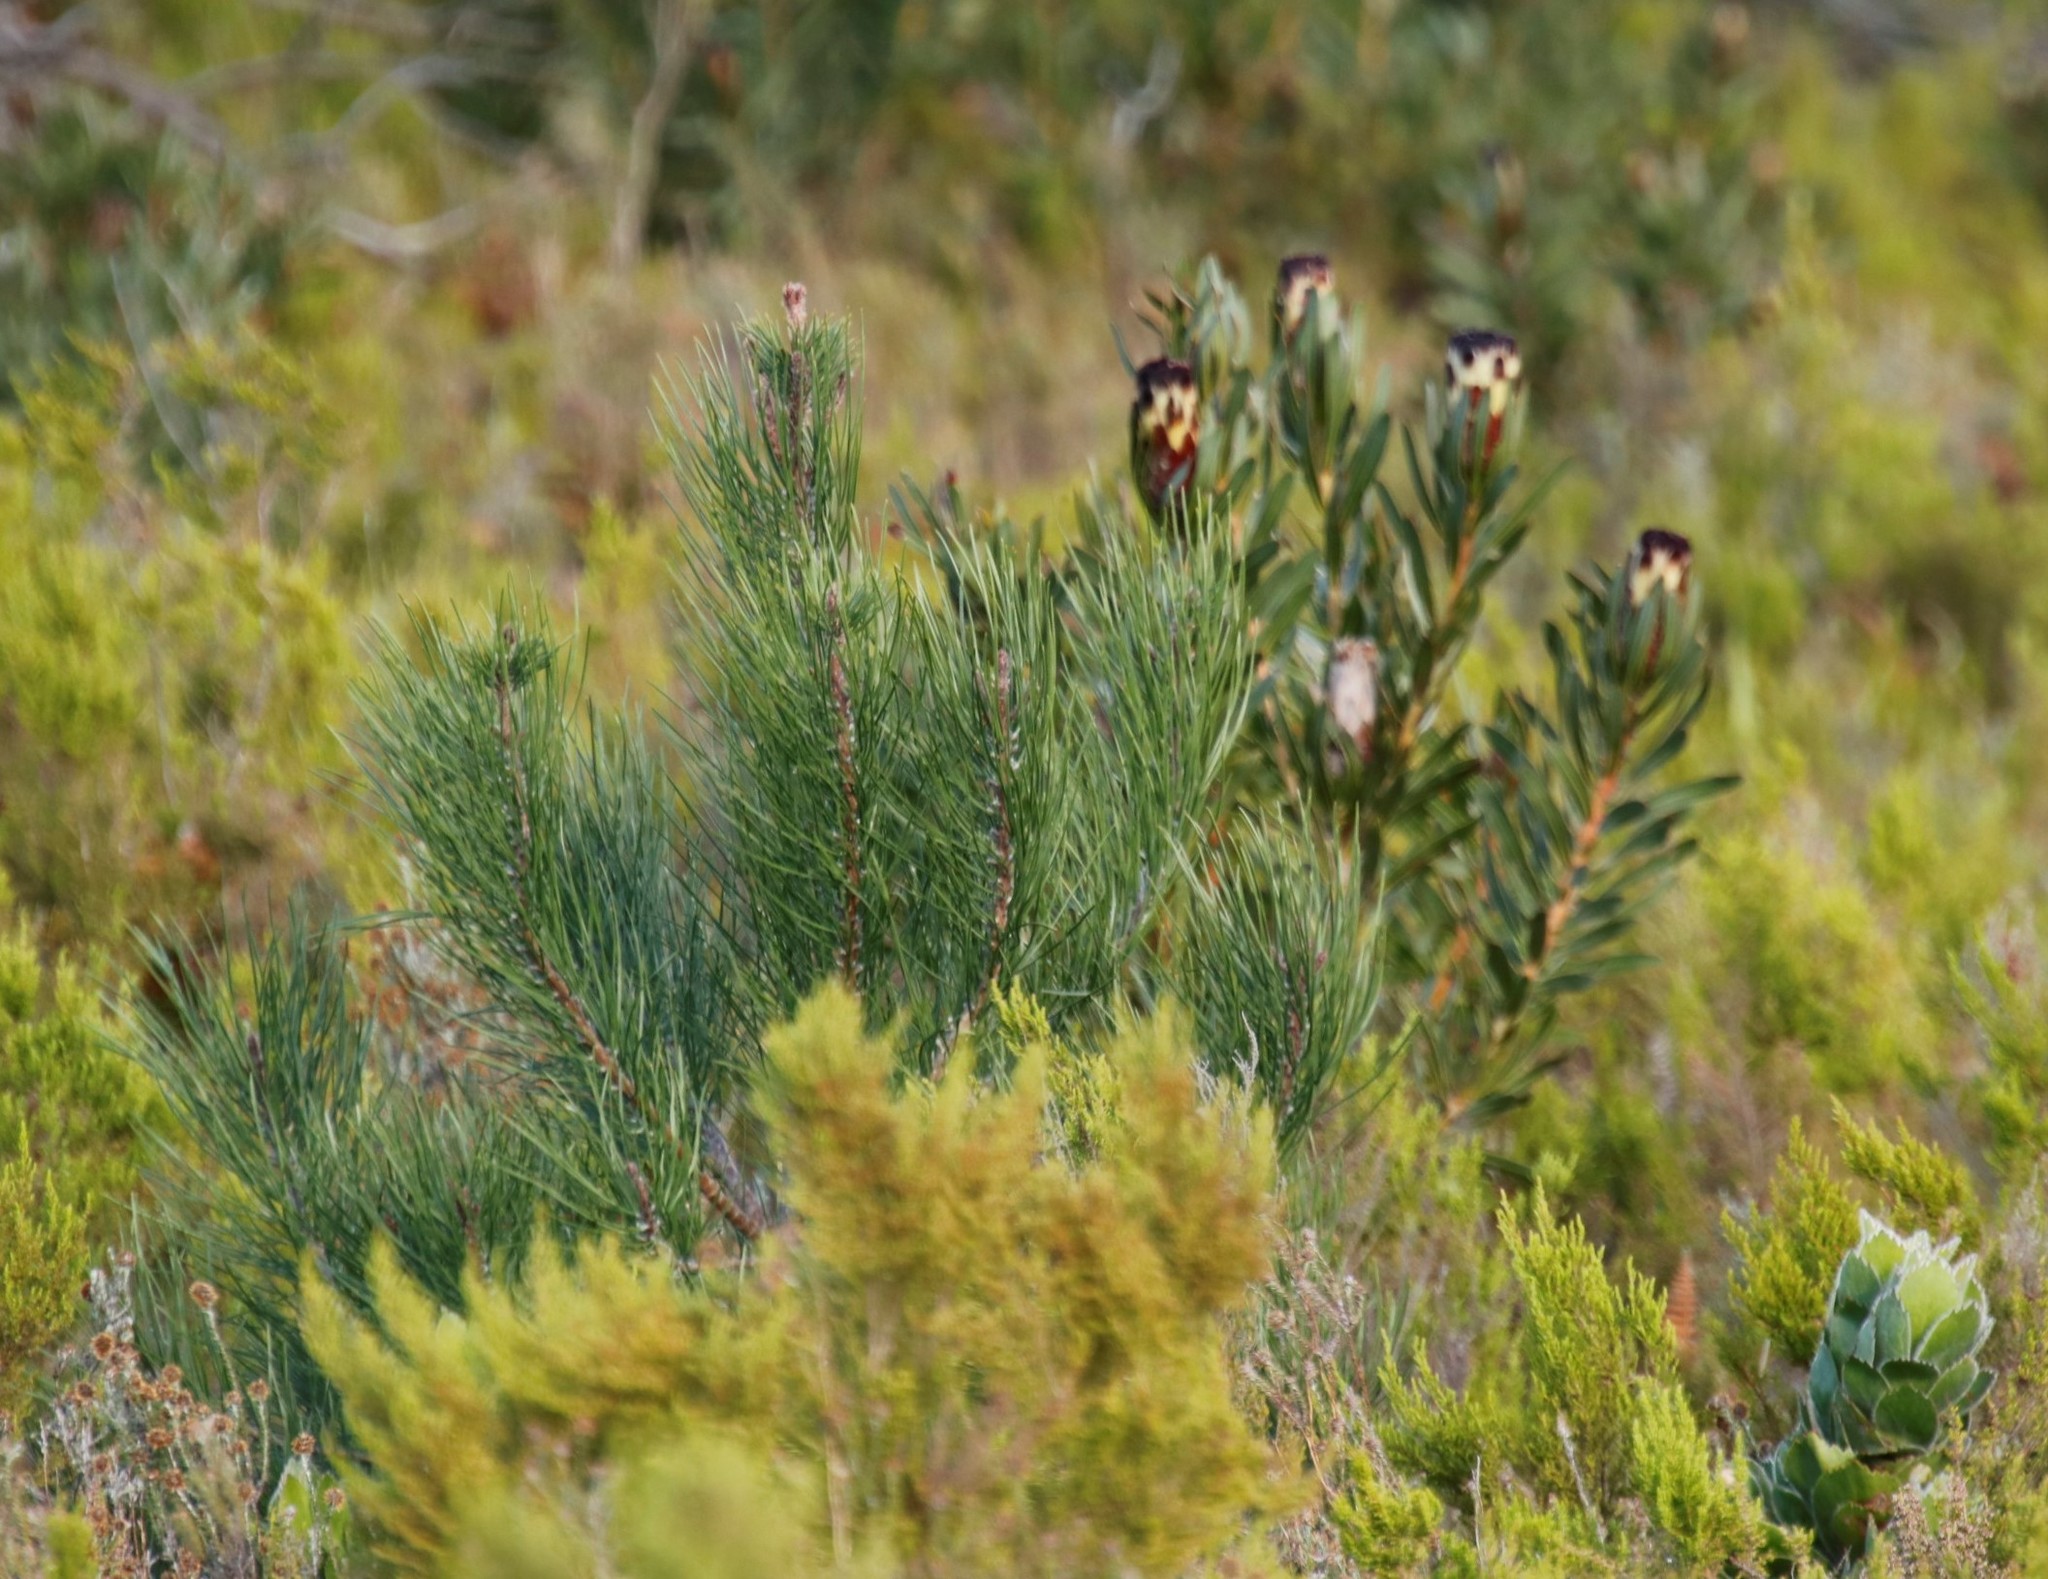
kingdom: Plantae
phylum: Tracheophyta
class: Pinopsida
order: Pinales
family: Pinaceae
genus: Pinus
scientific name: Pinus radiata
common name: Monterey pine
